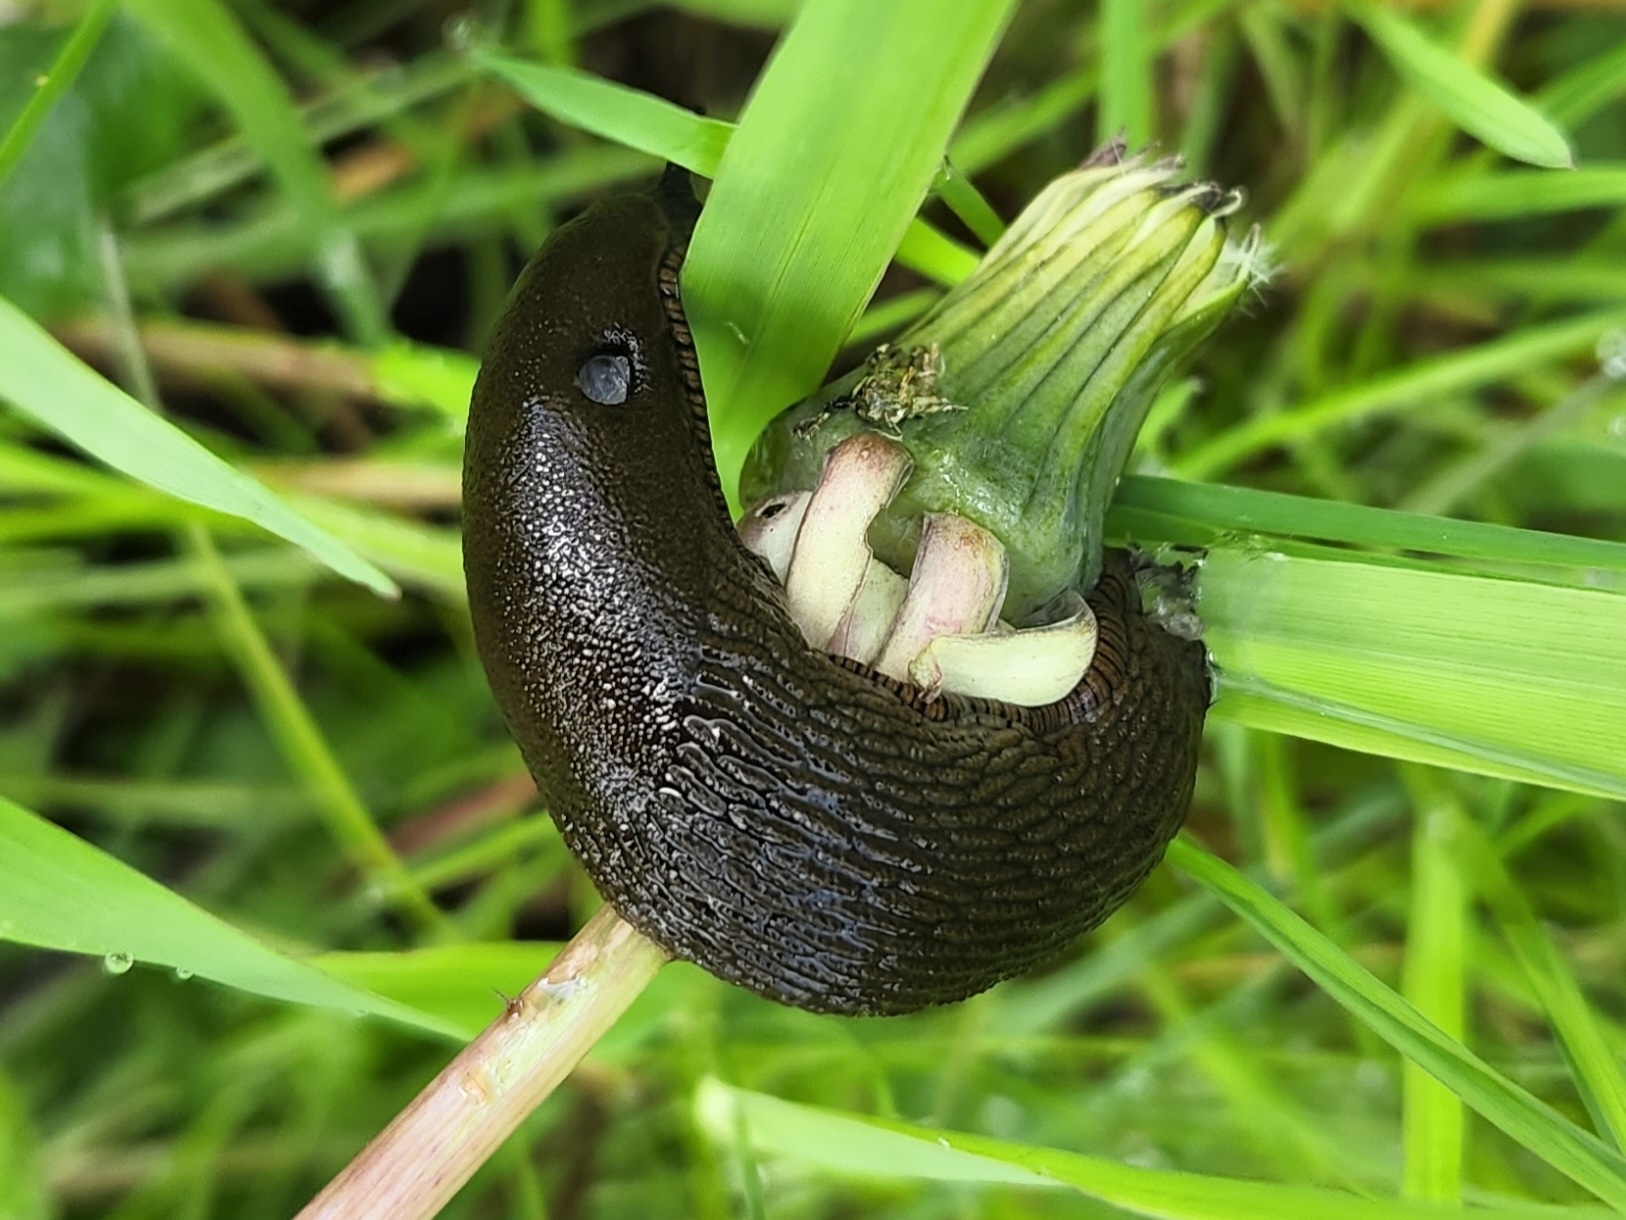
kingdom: Animalia
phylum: Mollusca
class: Gastropoda
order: Stylommatophora
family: Arionidae
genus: Arion
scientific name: Arion
